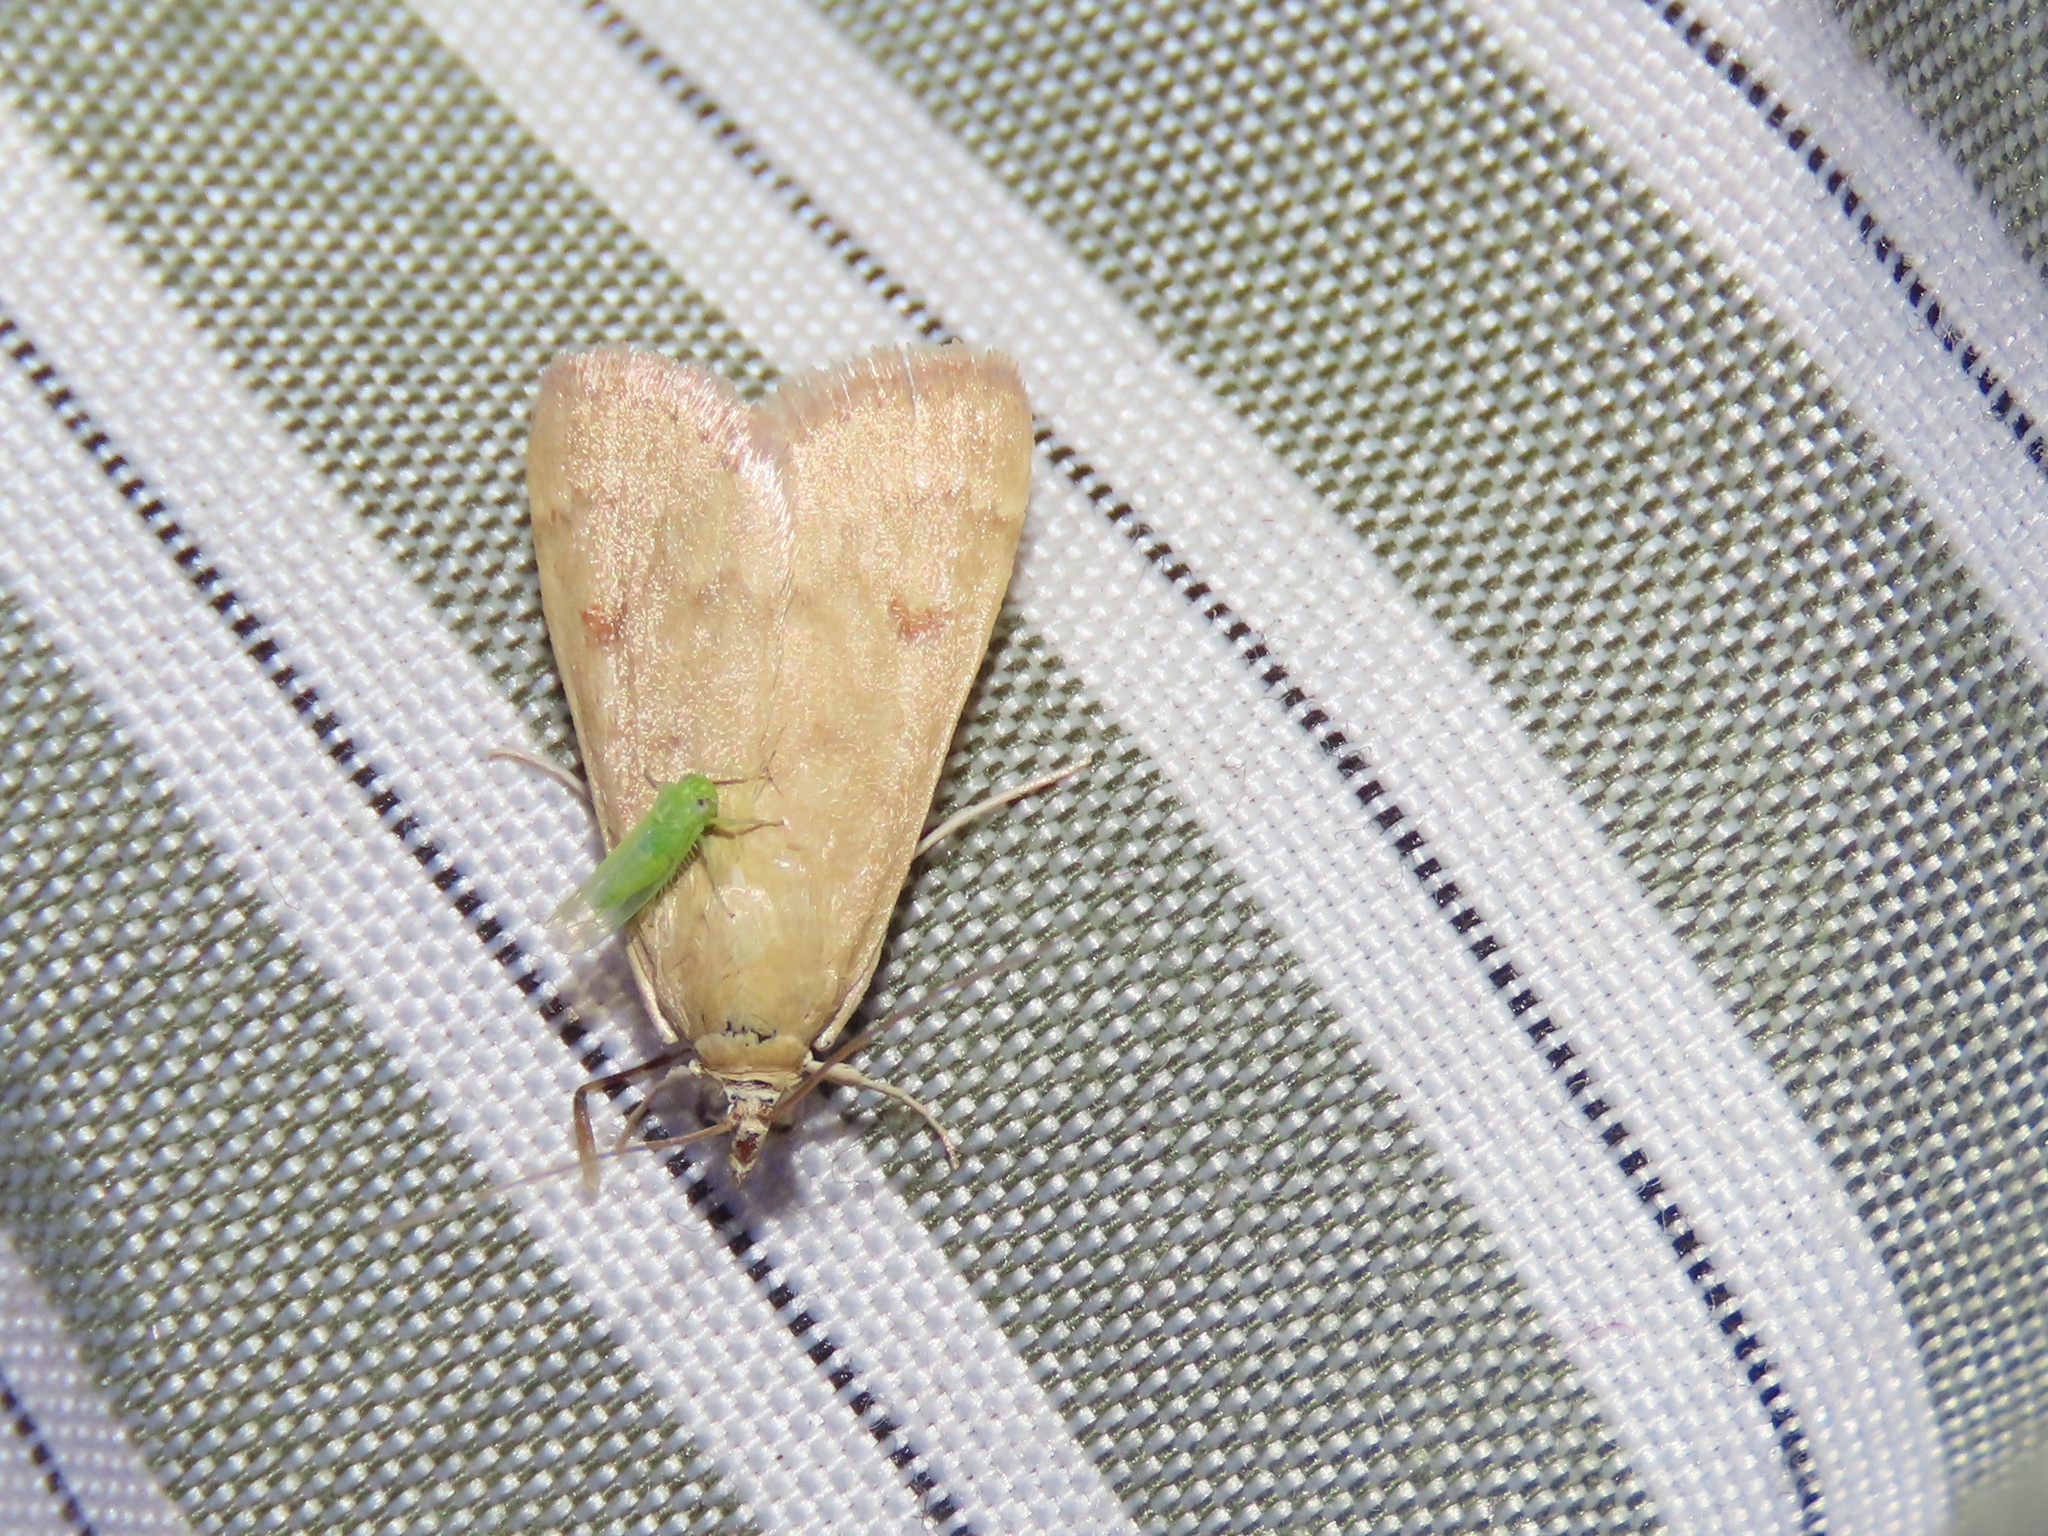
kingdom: Animalia
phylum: Arthropoda
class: Insecta
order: Lepidoptera
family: Crambidae
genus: Achyra
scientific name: Achyra rantalis
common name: Garden webworm
